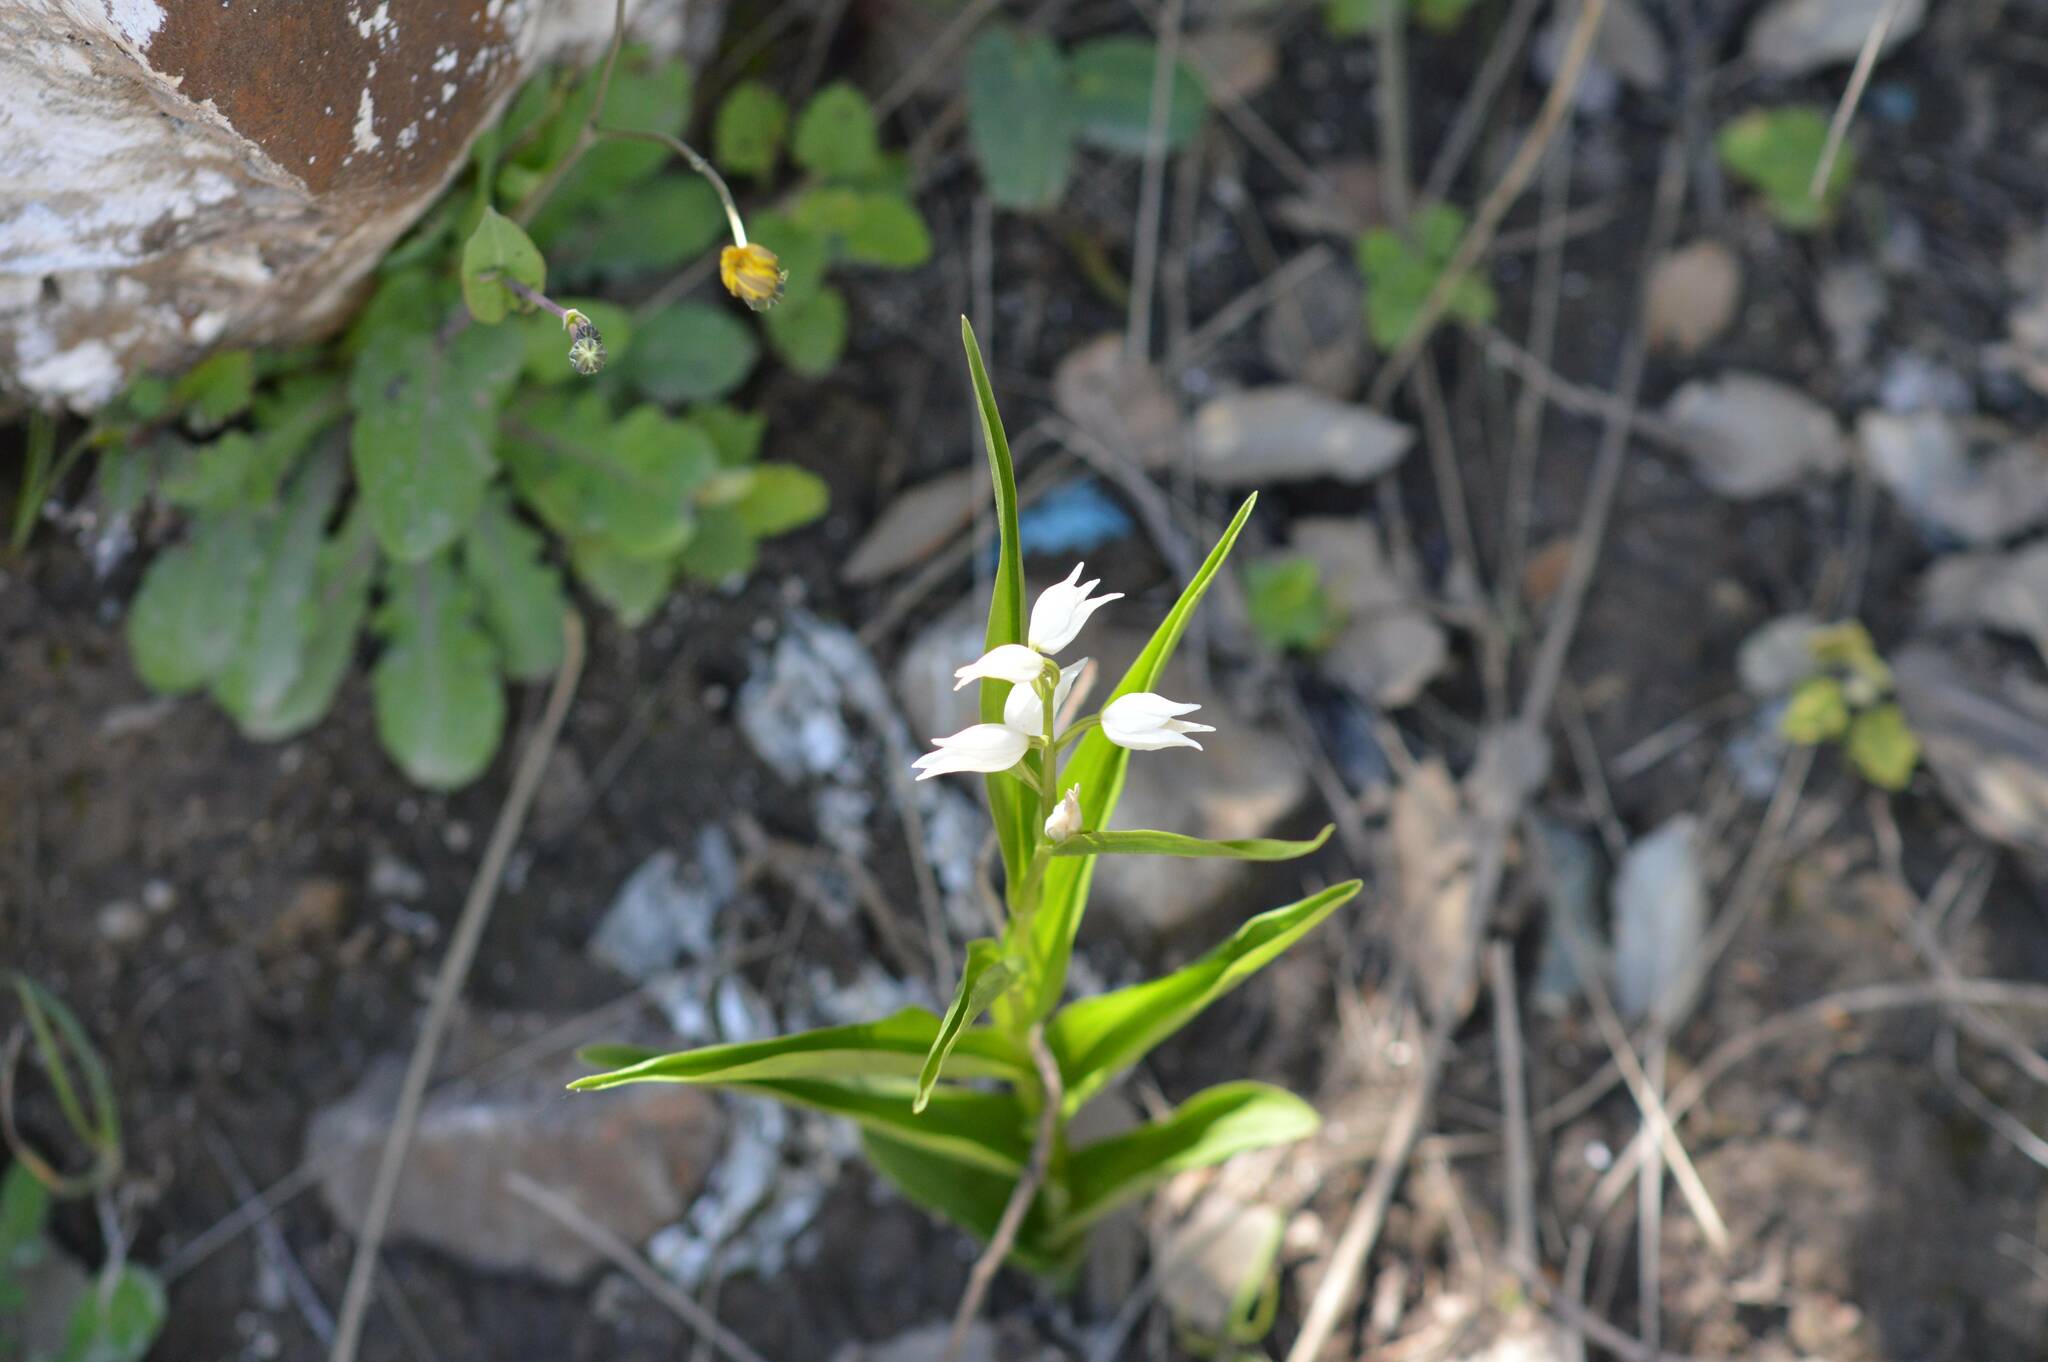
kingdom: Plantae
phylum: Tracheophyta
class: Liliopsida
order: Asparagales
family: Orchidaceae
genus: Cephalanthera
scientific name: Cephalanthera longifolia
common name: Narrow-leaved helleborine
